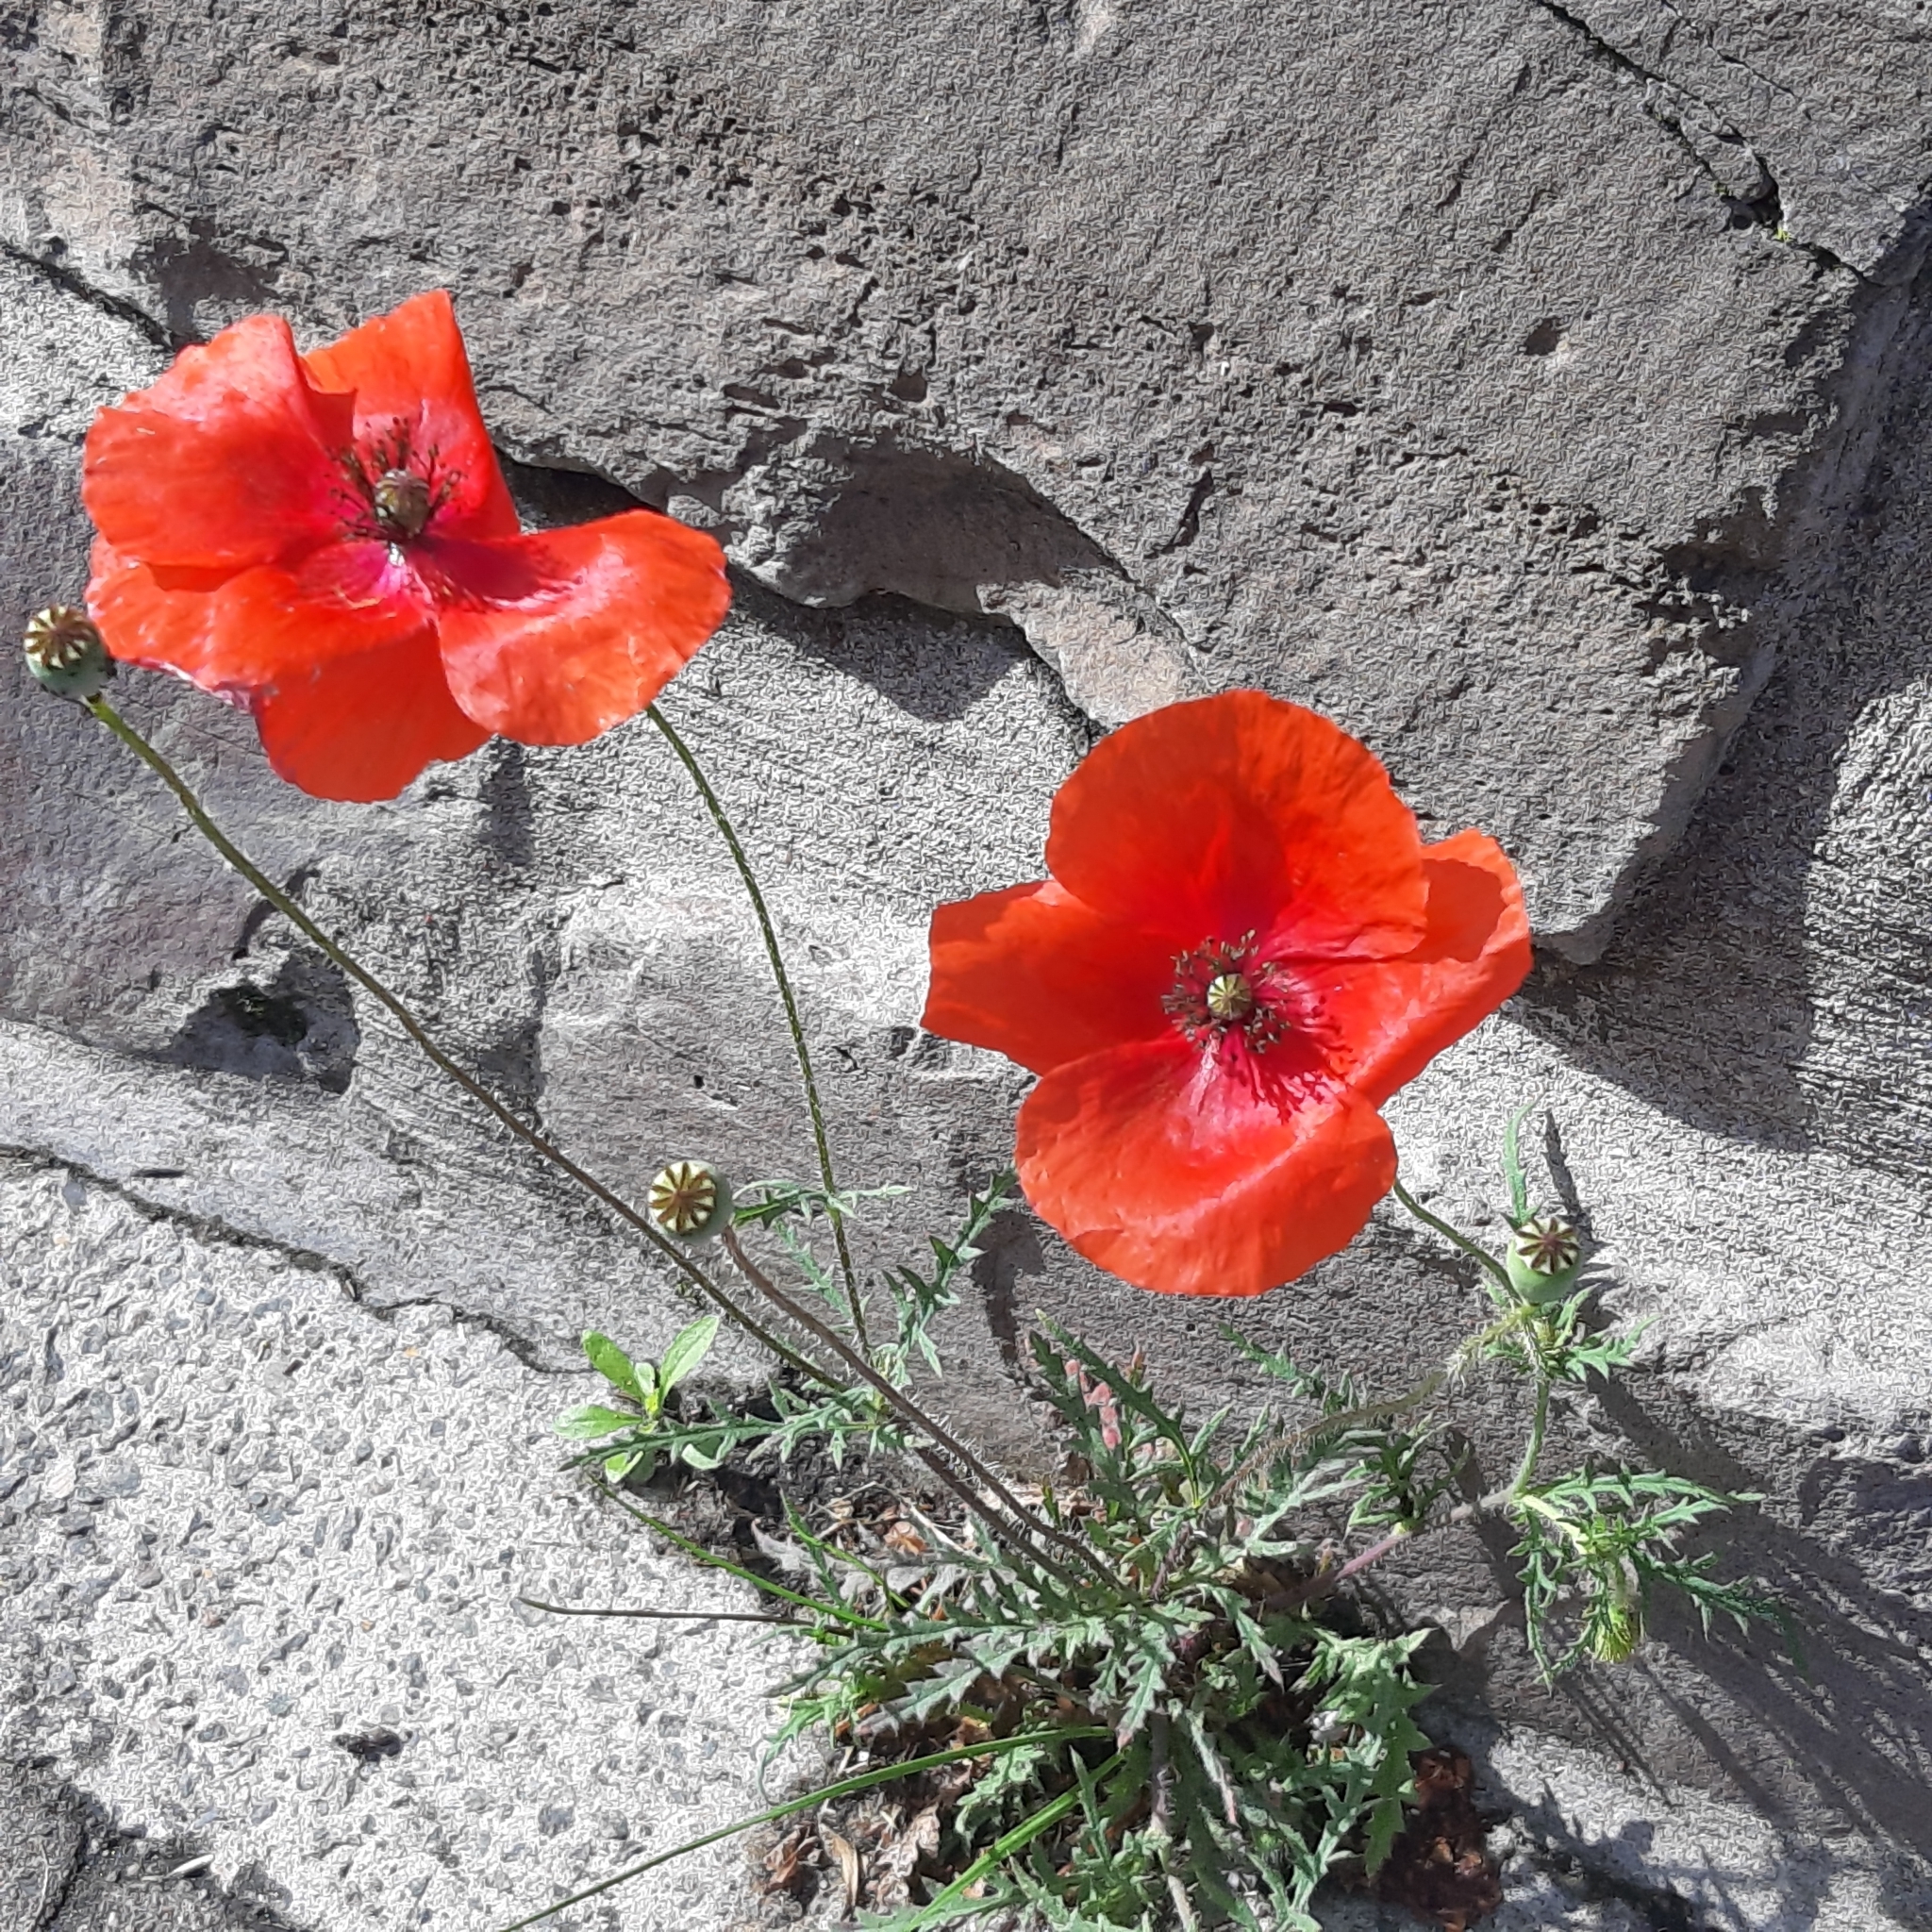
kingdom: Plantae
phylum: Tracheophyta
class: Magnoliopsida
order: Ranunculales
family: Papaveraceae
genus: Papaver
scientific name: Papaver rhoeas
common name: Corn poppy
